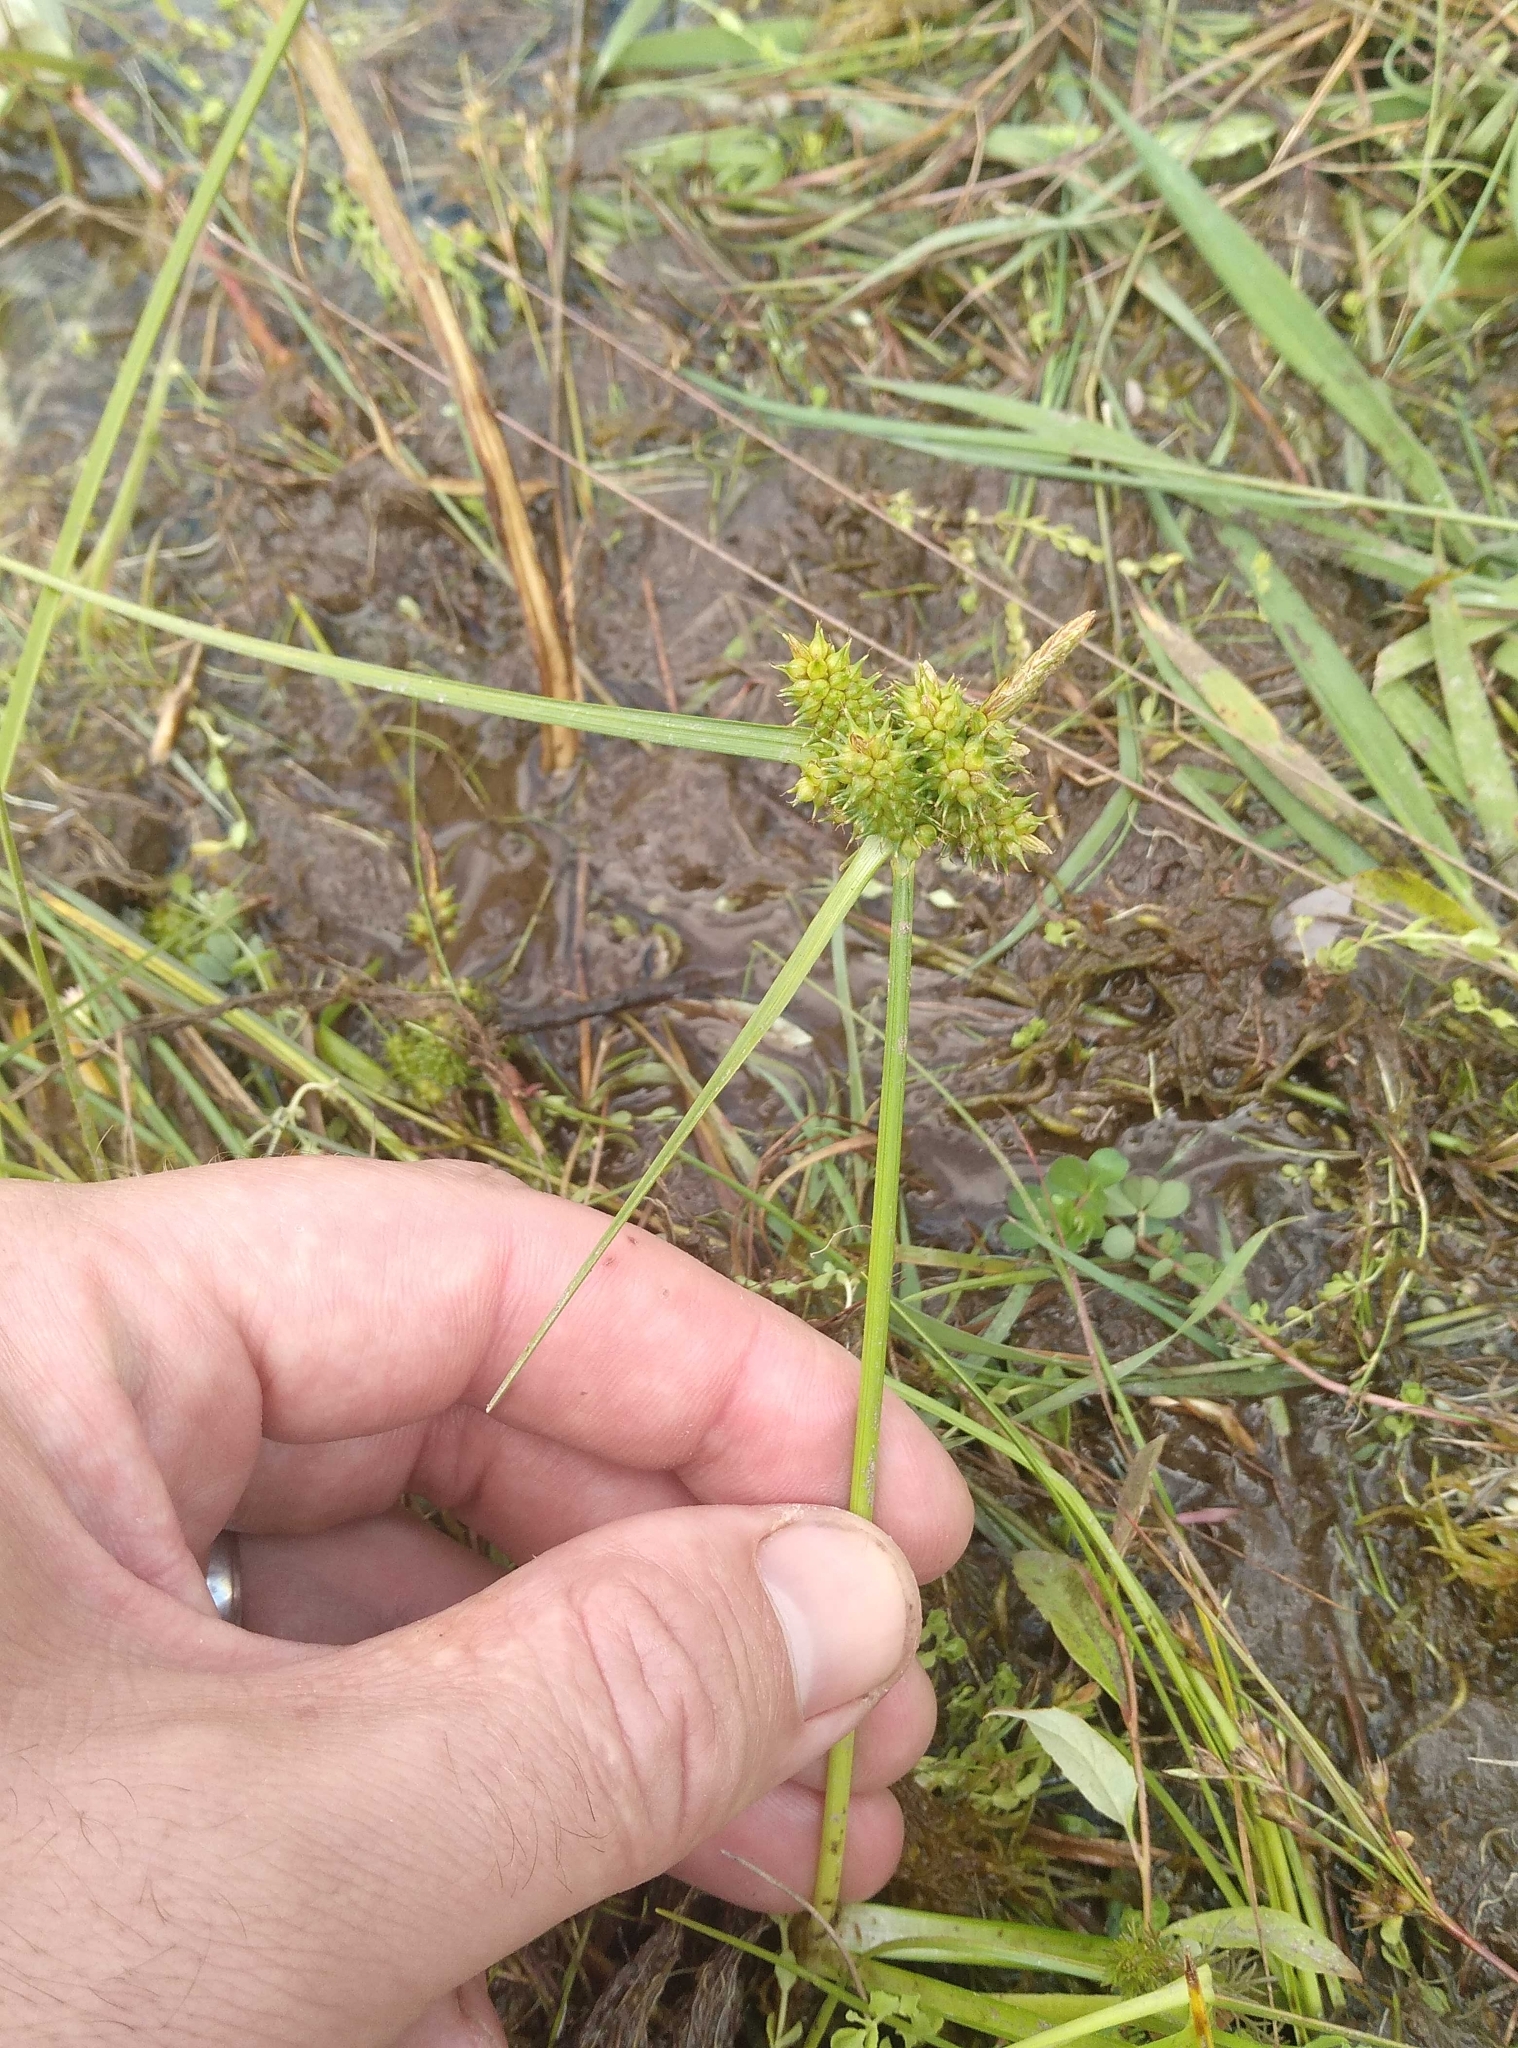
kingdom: Plantae
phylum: Tracheophyta
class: Liliopsida
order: Poales
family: Cyperaceae
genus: Carex
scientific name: Carex flaviformis
